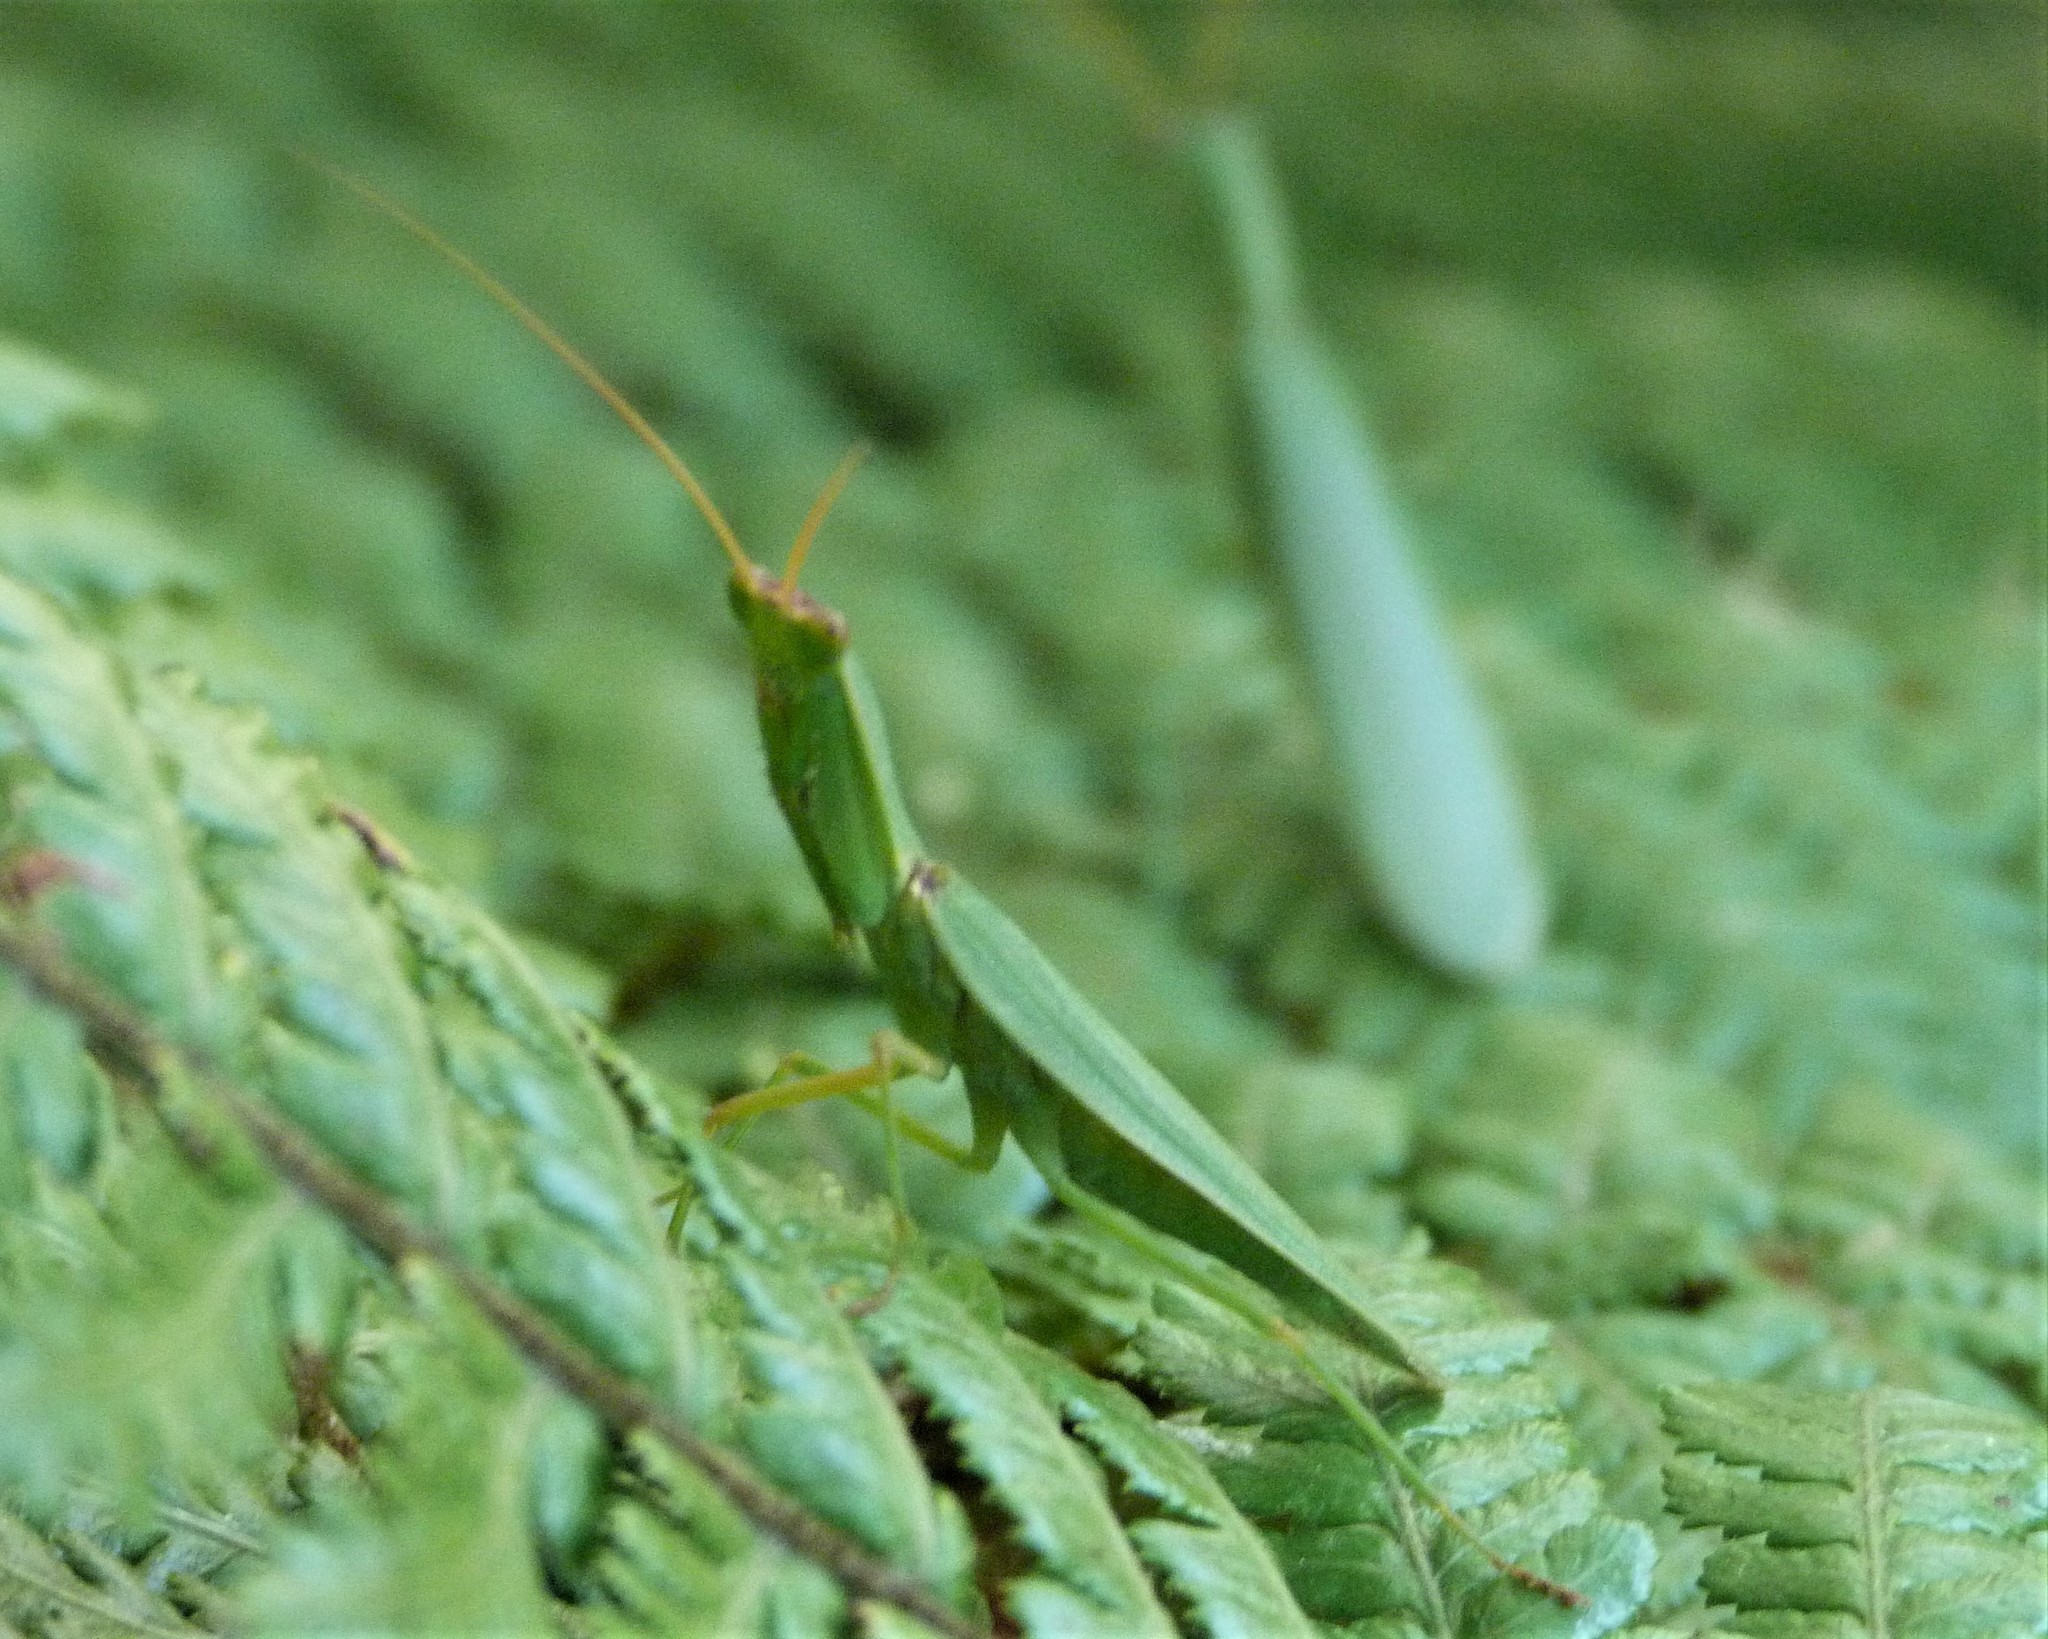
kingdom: Animalia
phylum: Arthropoda
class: Insecta
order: Mantodea
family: Mantidae
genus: Orthodera
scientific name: Orthodera novaezealandiae
